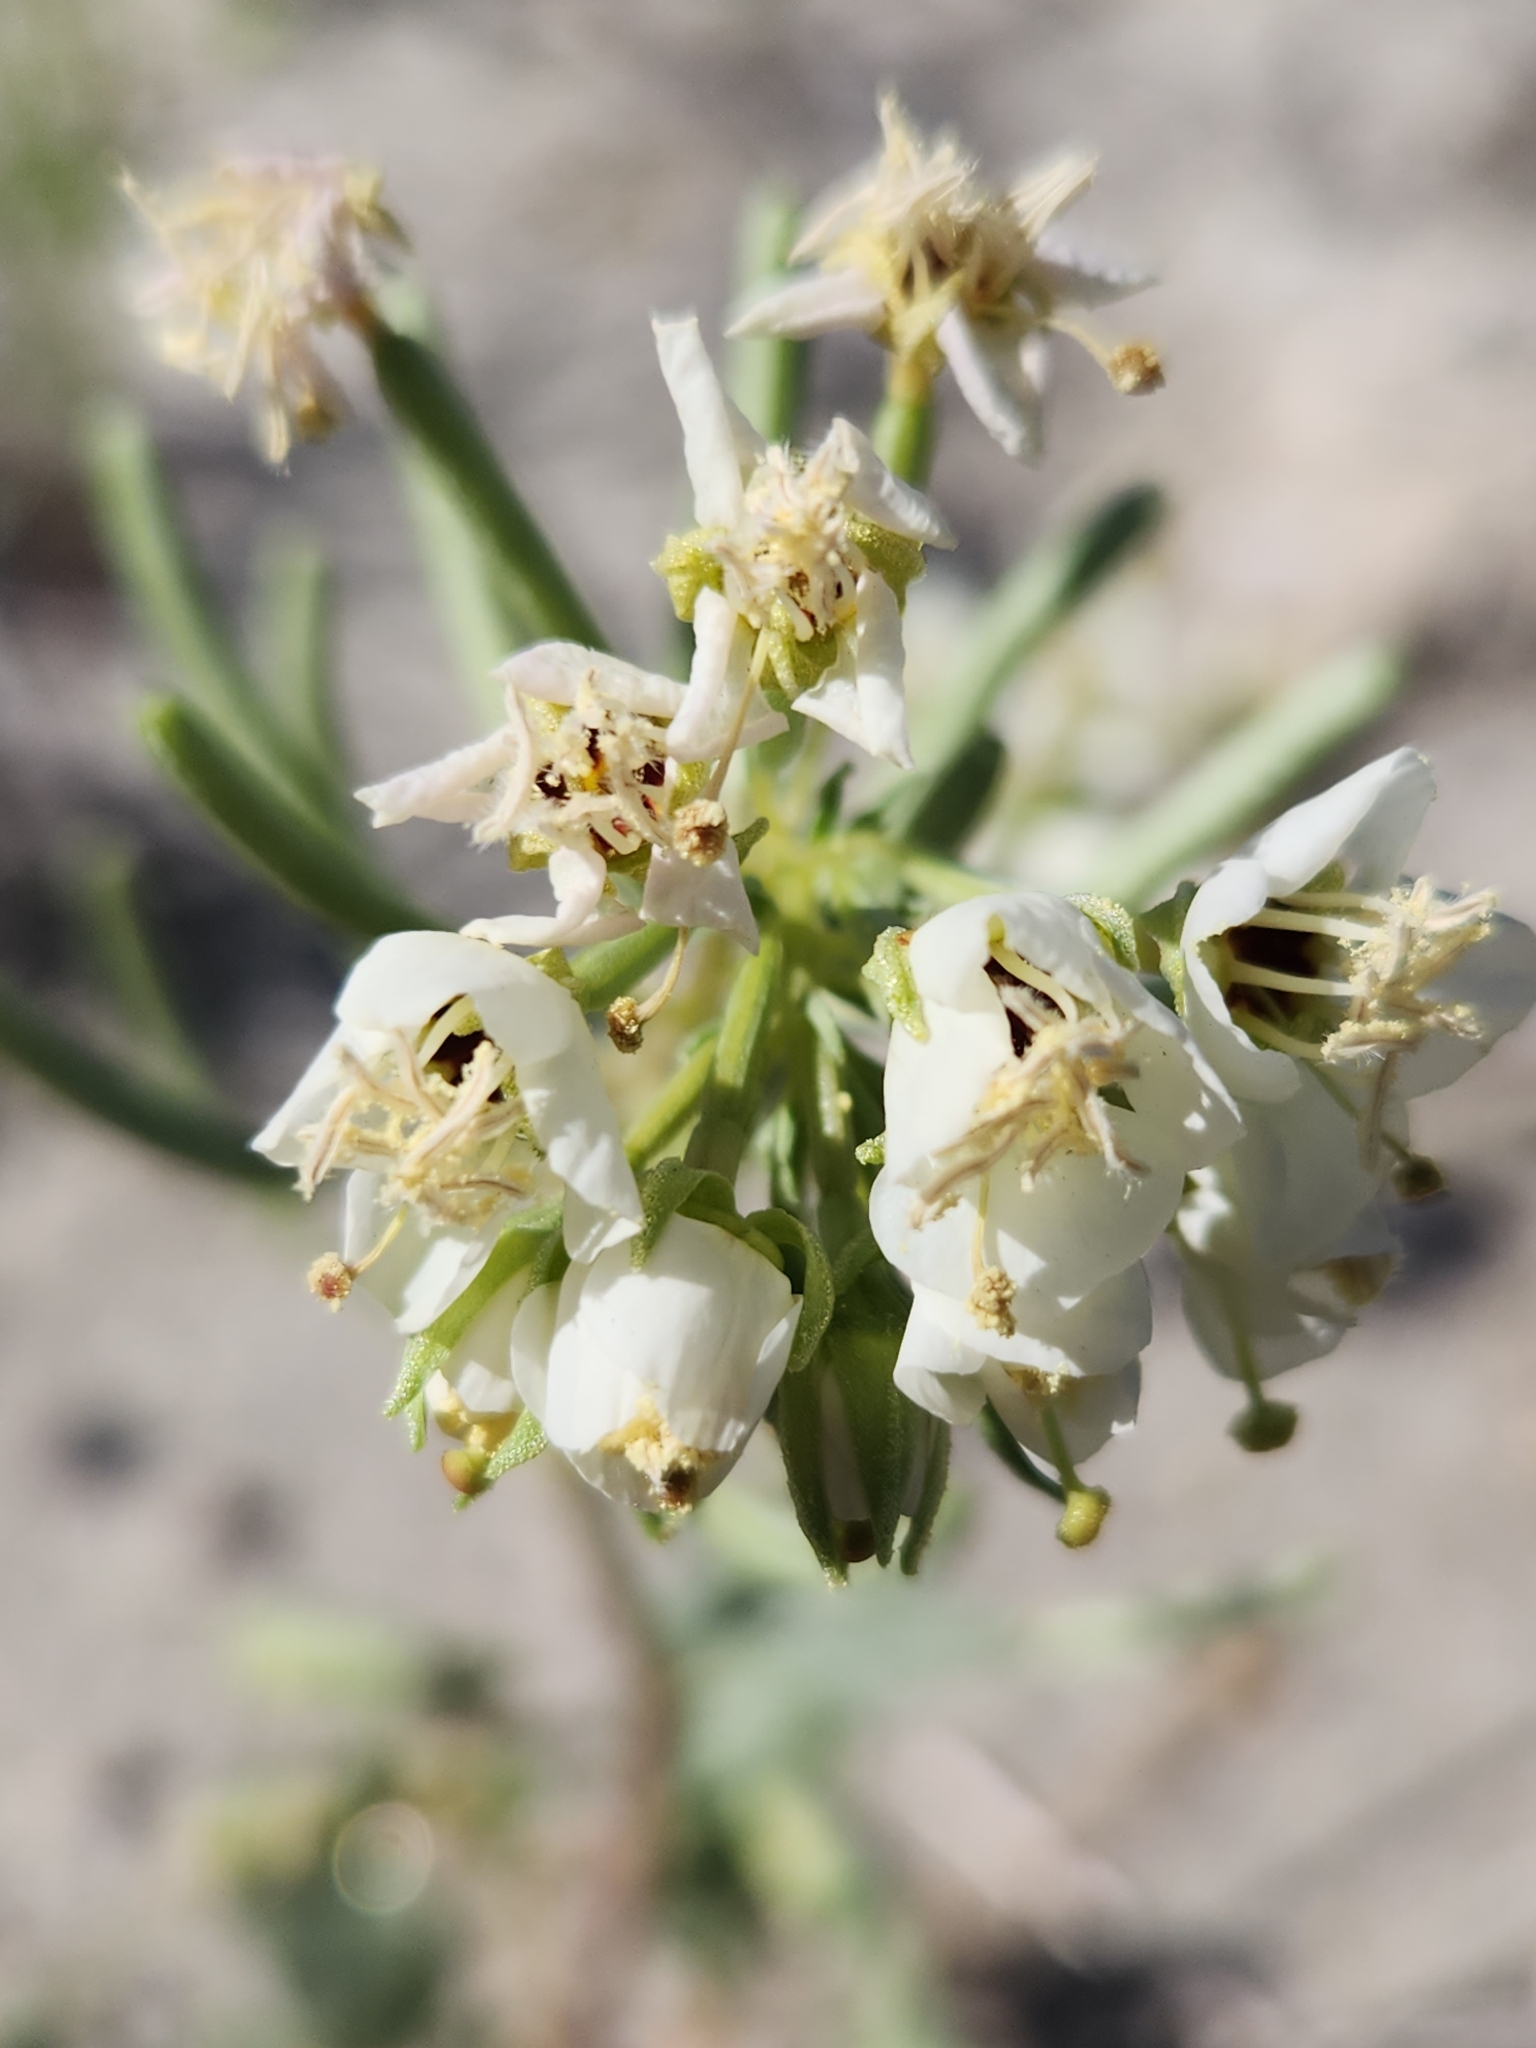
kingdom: Plantae
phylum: Tracheophyta
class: Magnoliopsida
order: Myrtales
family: Onagraceae
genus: Chylismia
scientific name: Chylismia claviformis
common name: Browneyes
